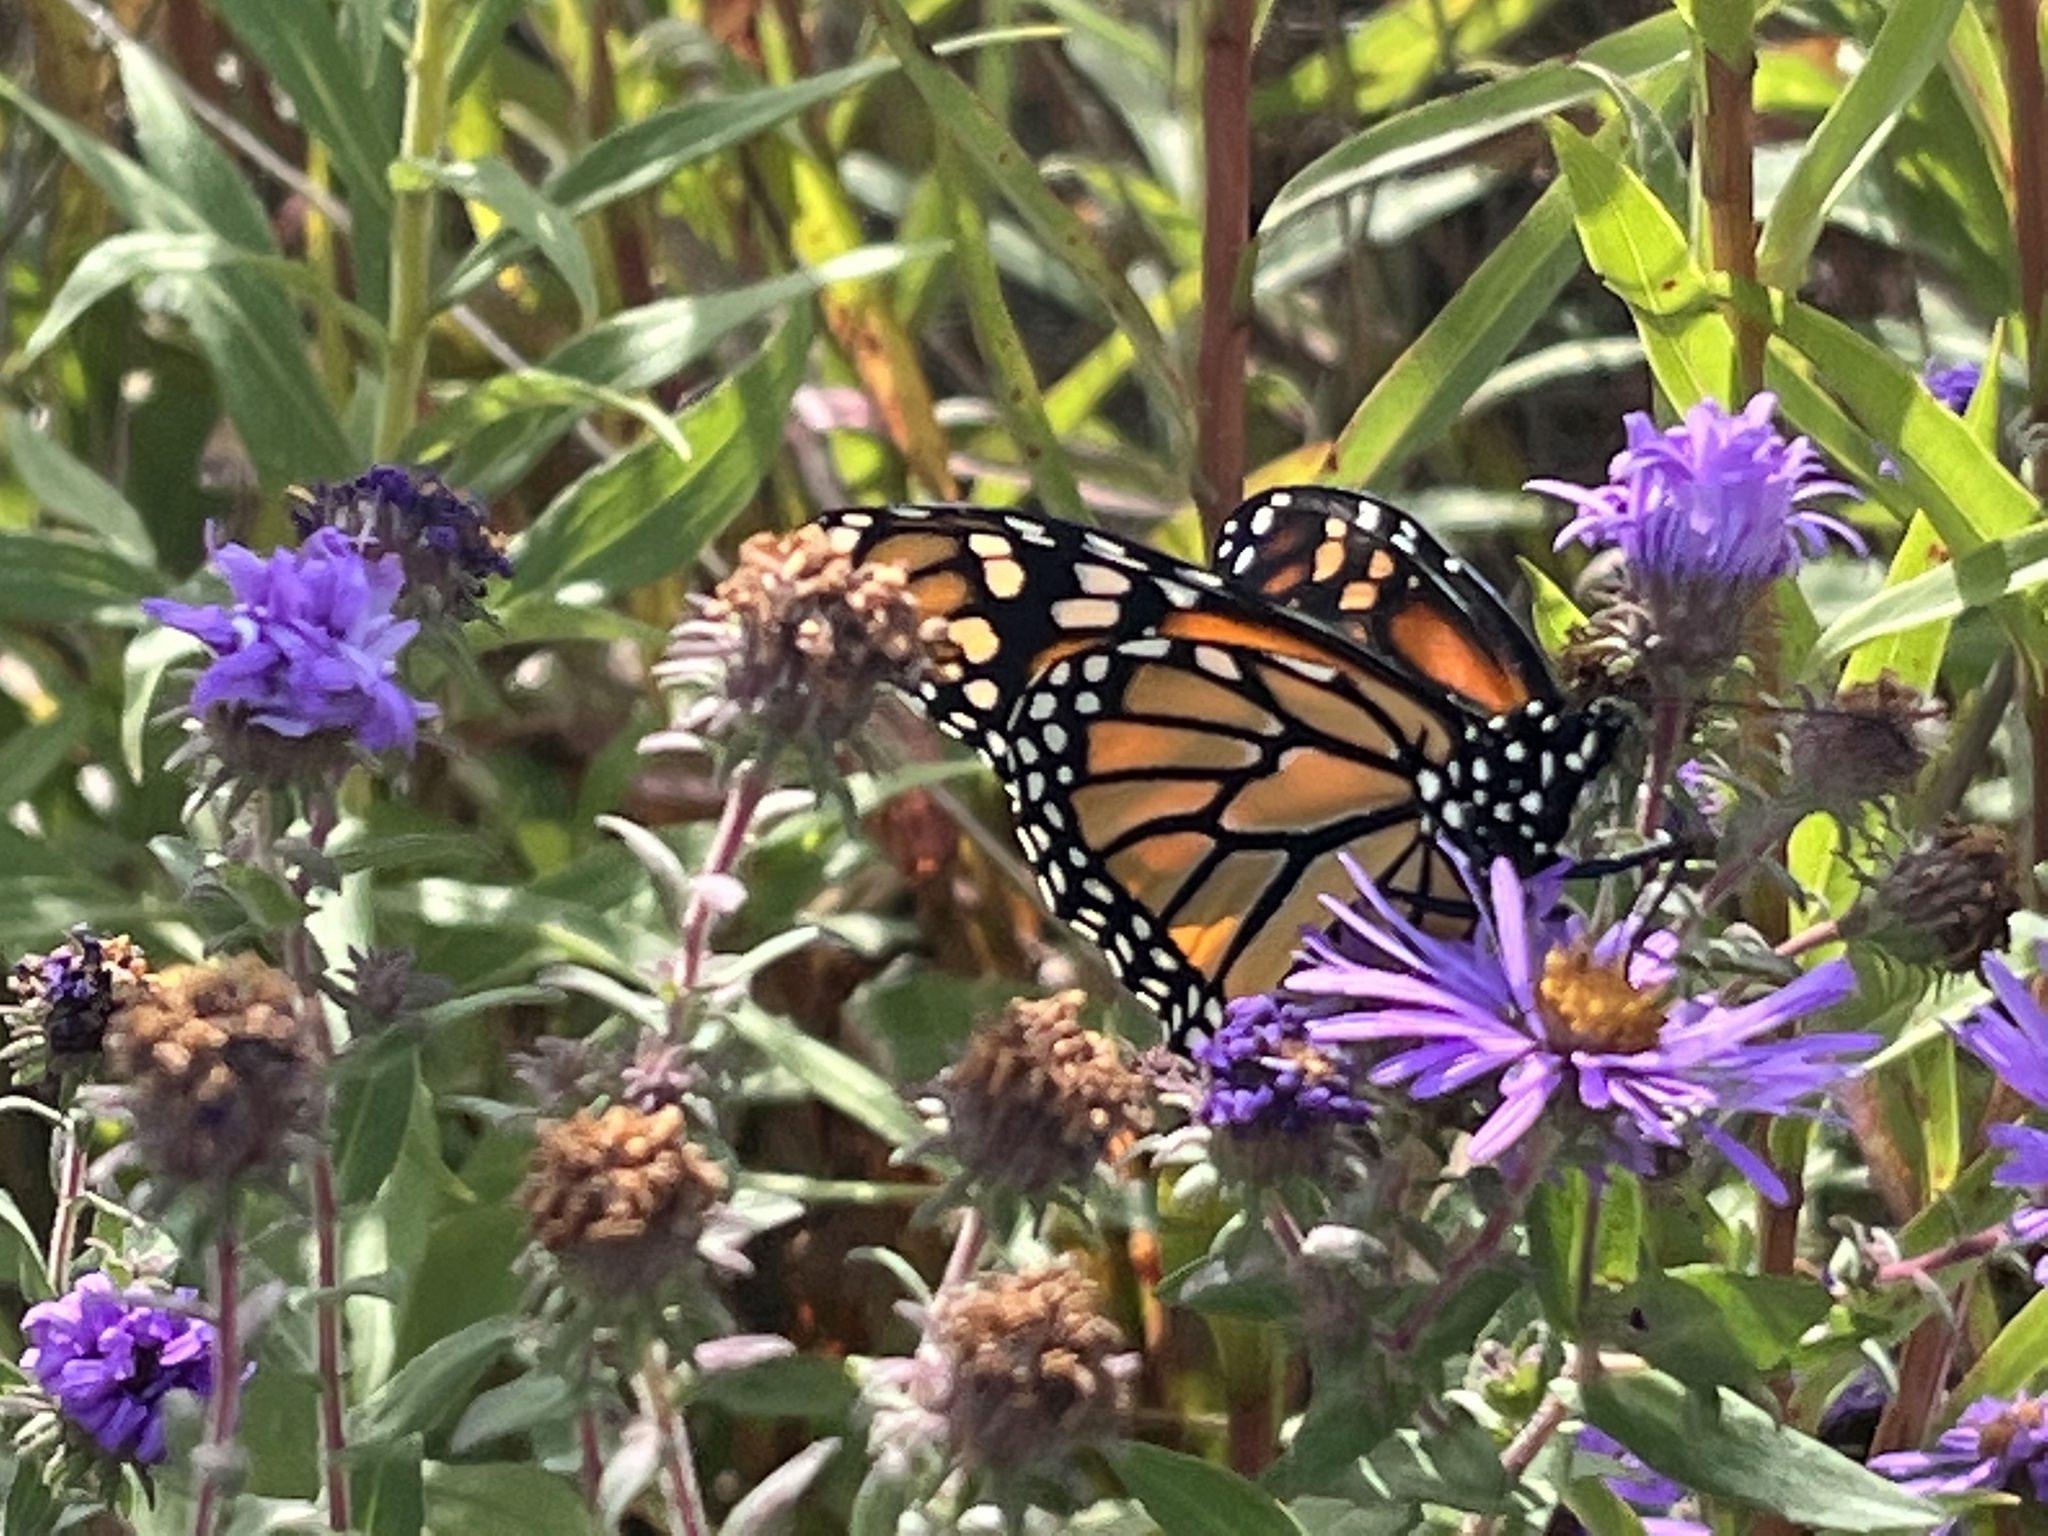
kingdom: Animalia
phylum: Arthropoda
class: Insecta
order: Lepidoptera
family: Nymphalidae
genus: Danaus
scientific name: Danaus plexippus
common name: Monarch
